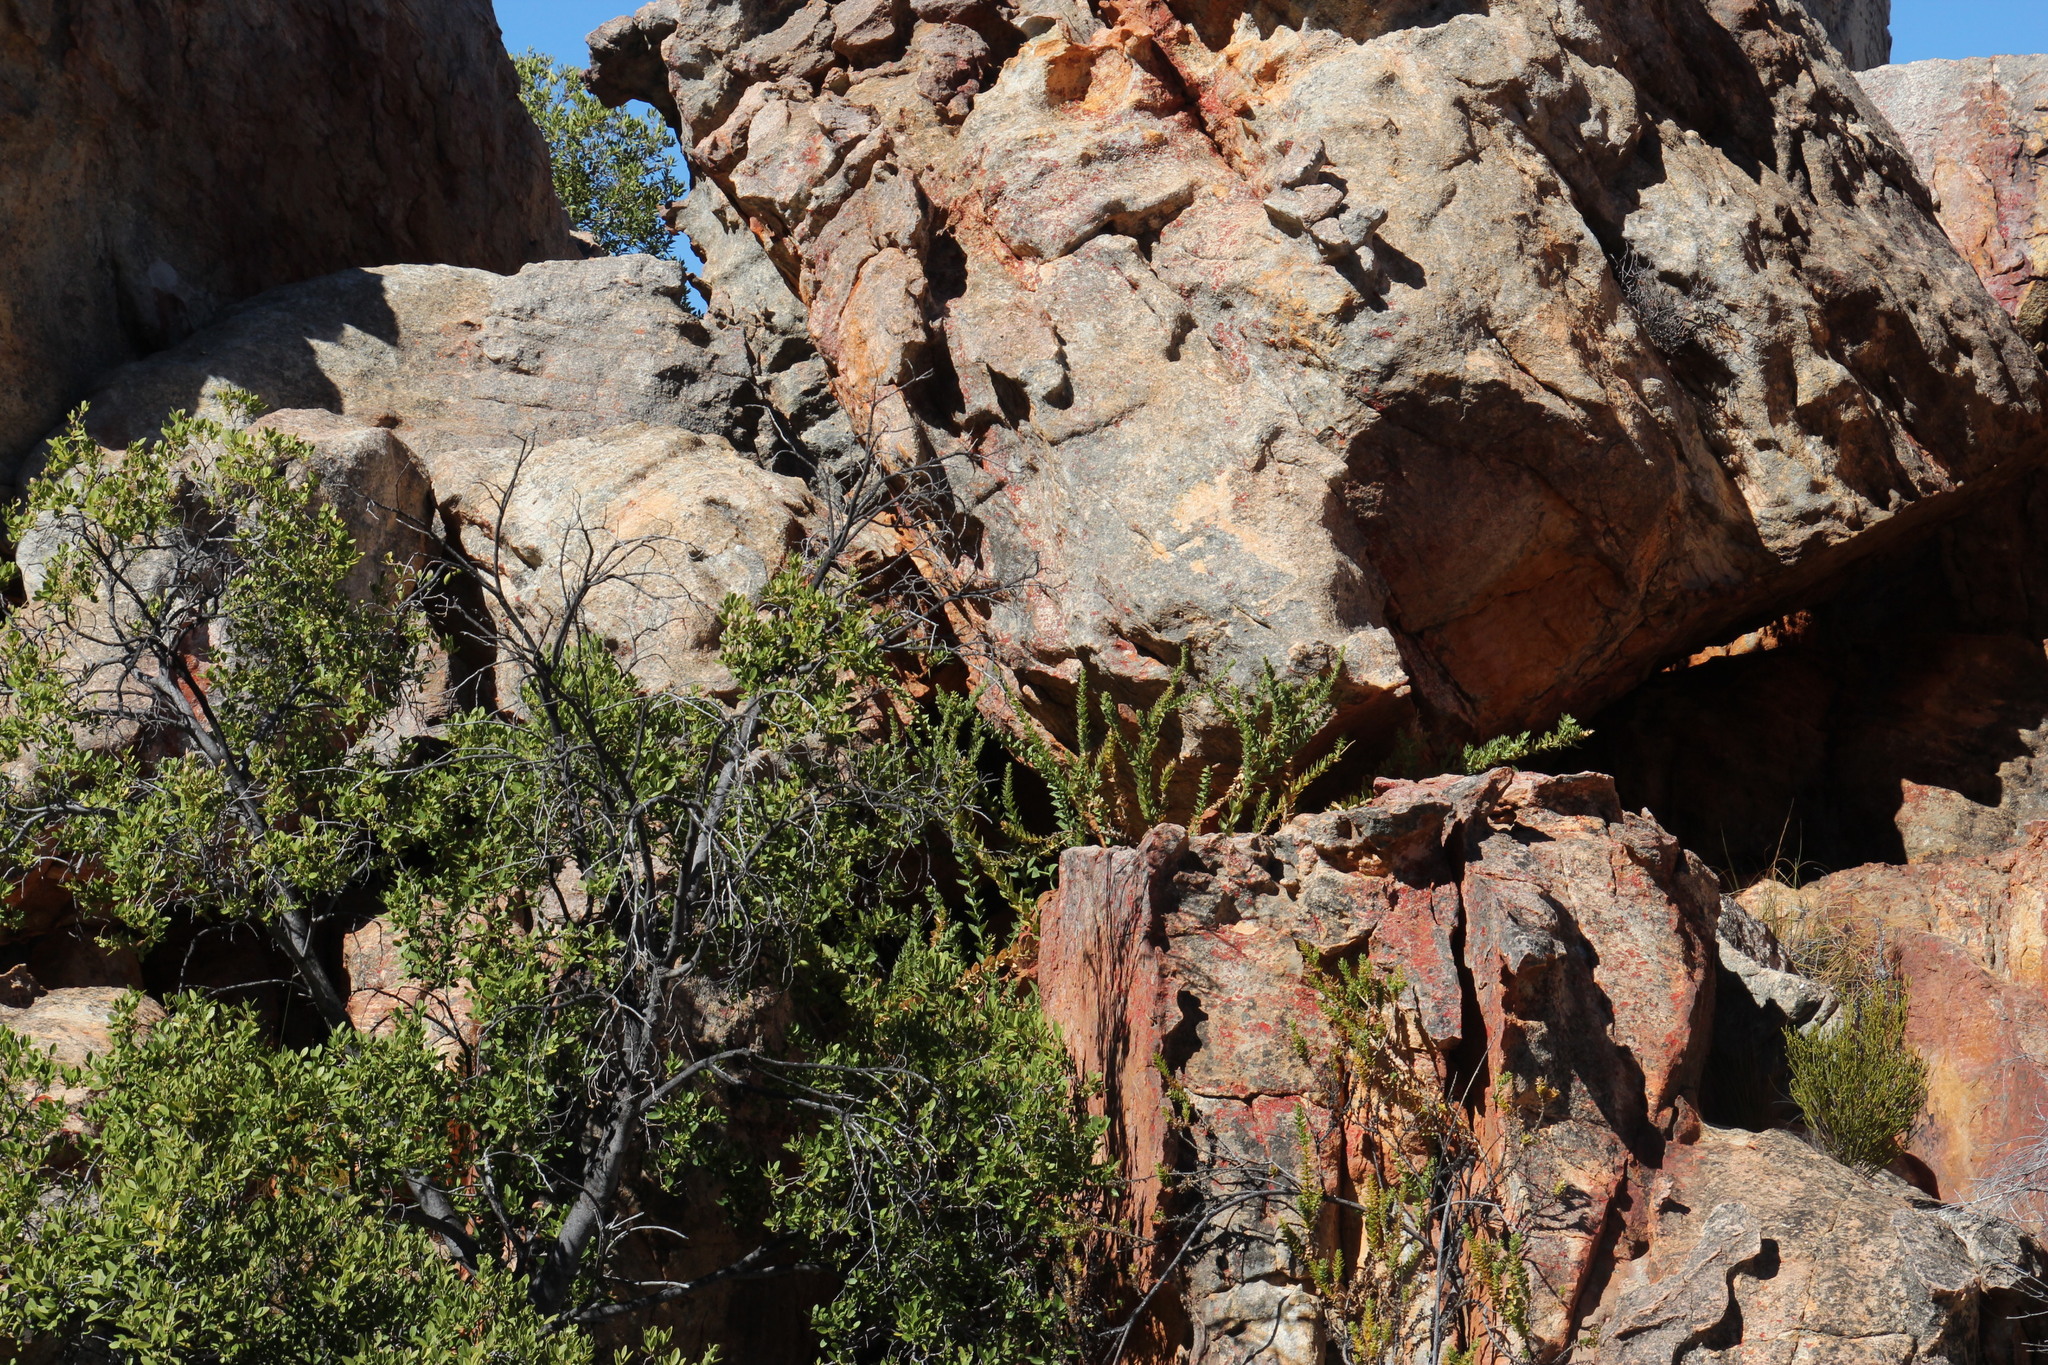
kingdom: Plantae
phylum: Tracheophyta
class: Magnoliopsida
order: Lamiales
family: Scrophulariaceae
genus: Oftia
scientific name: Oftia africana
